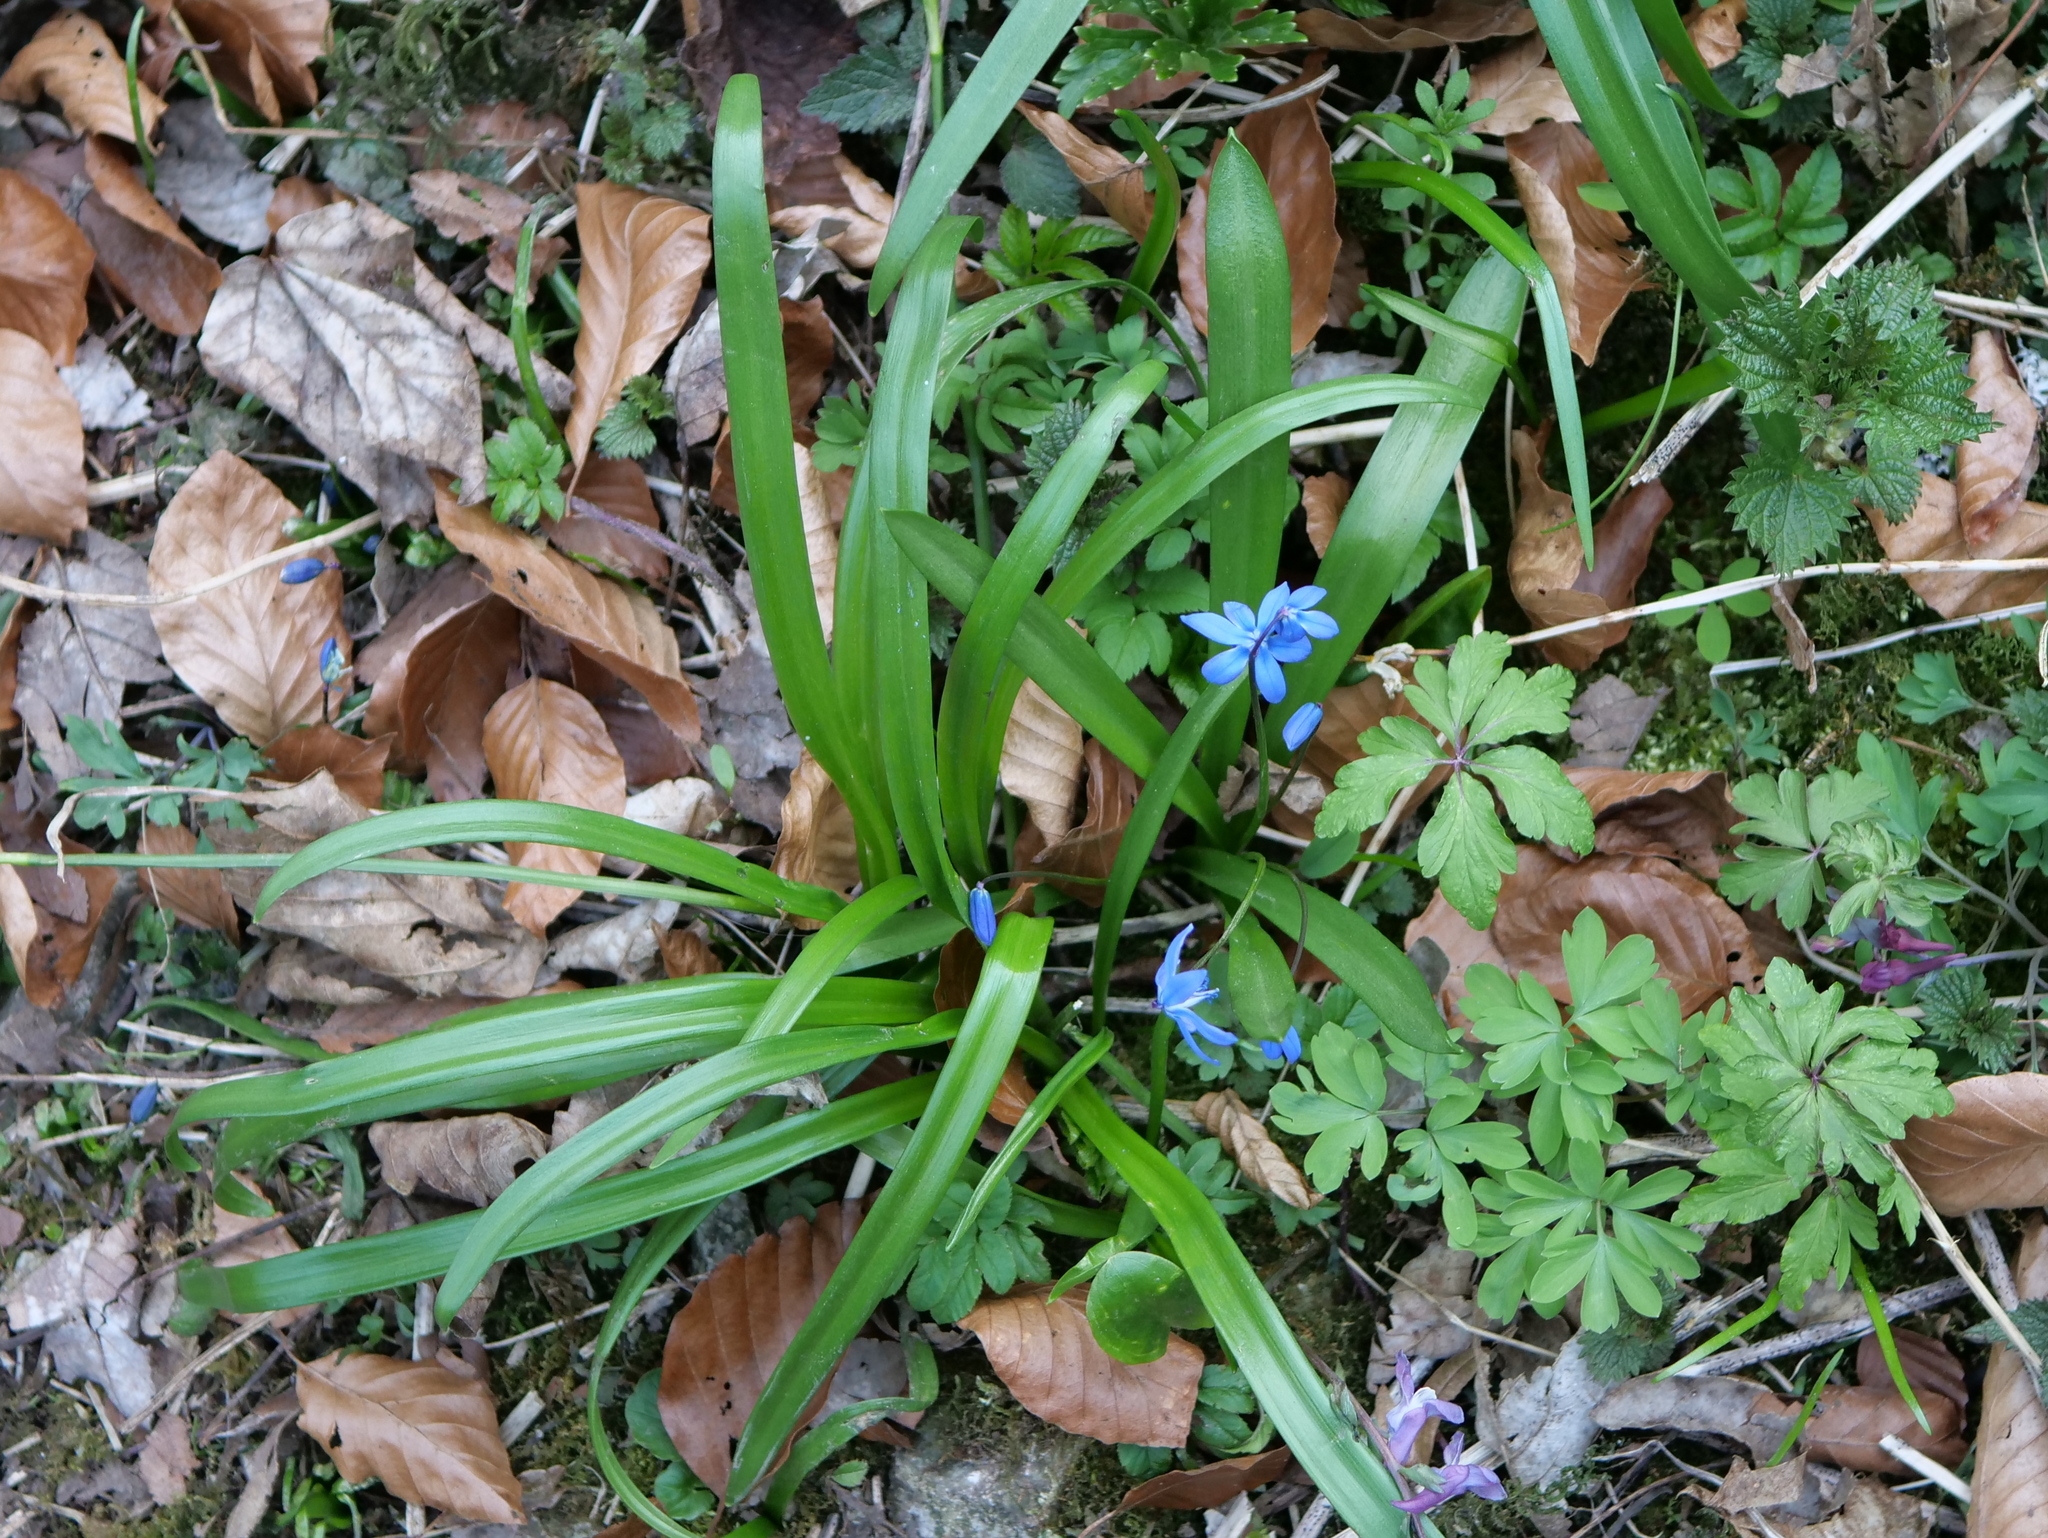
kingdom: Plantae
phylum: Tracheophyta
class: Liliopsida
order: Asparagales
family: Asparagaceae
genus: Scilla
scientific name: Scilla siberica
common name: Siberian squill
